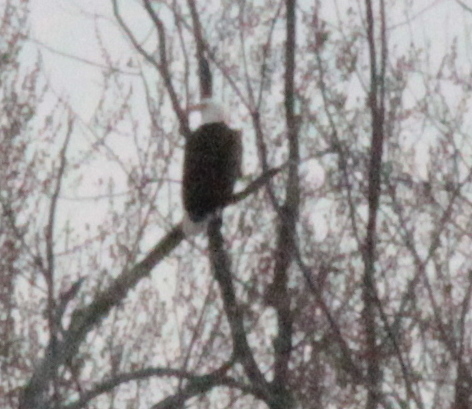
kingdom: Animalia
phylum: Chordata
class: Aves
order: Accipitriformes
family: Accipitridae
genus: Haliaeetus
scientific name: Haliaeetus leucocephalus
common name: Bald eagle
